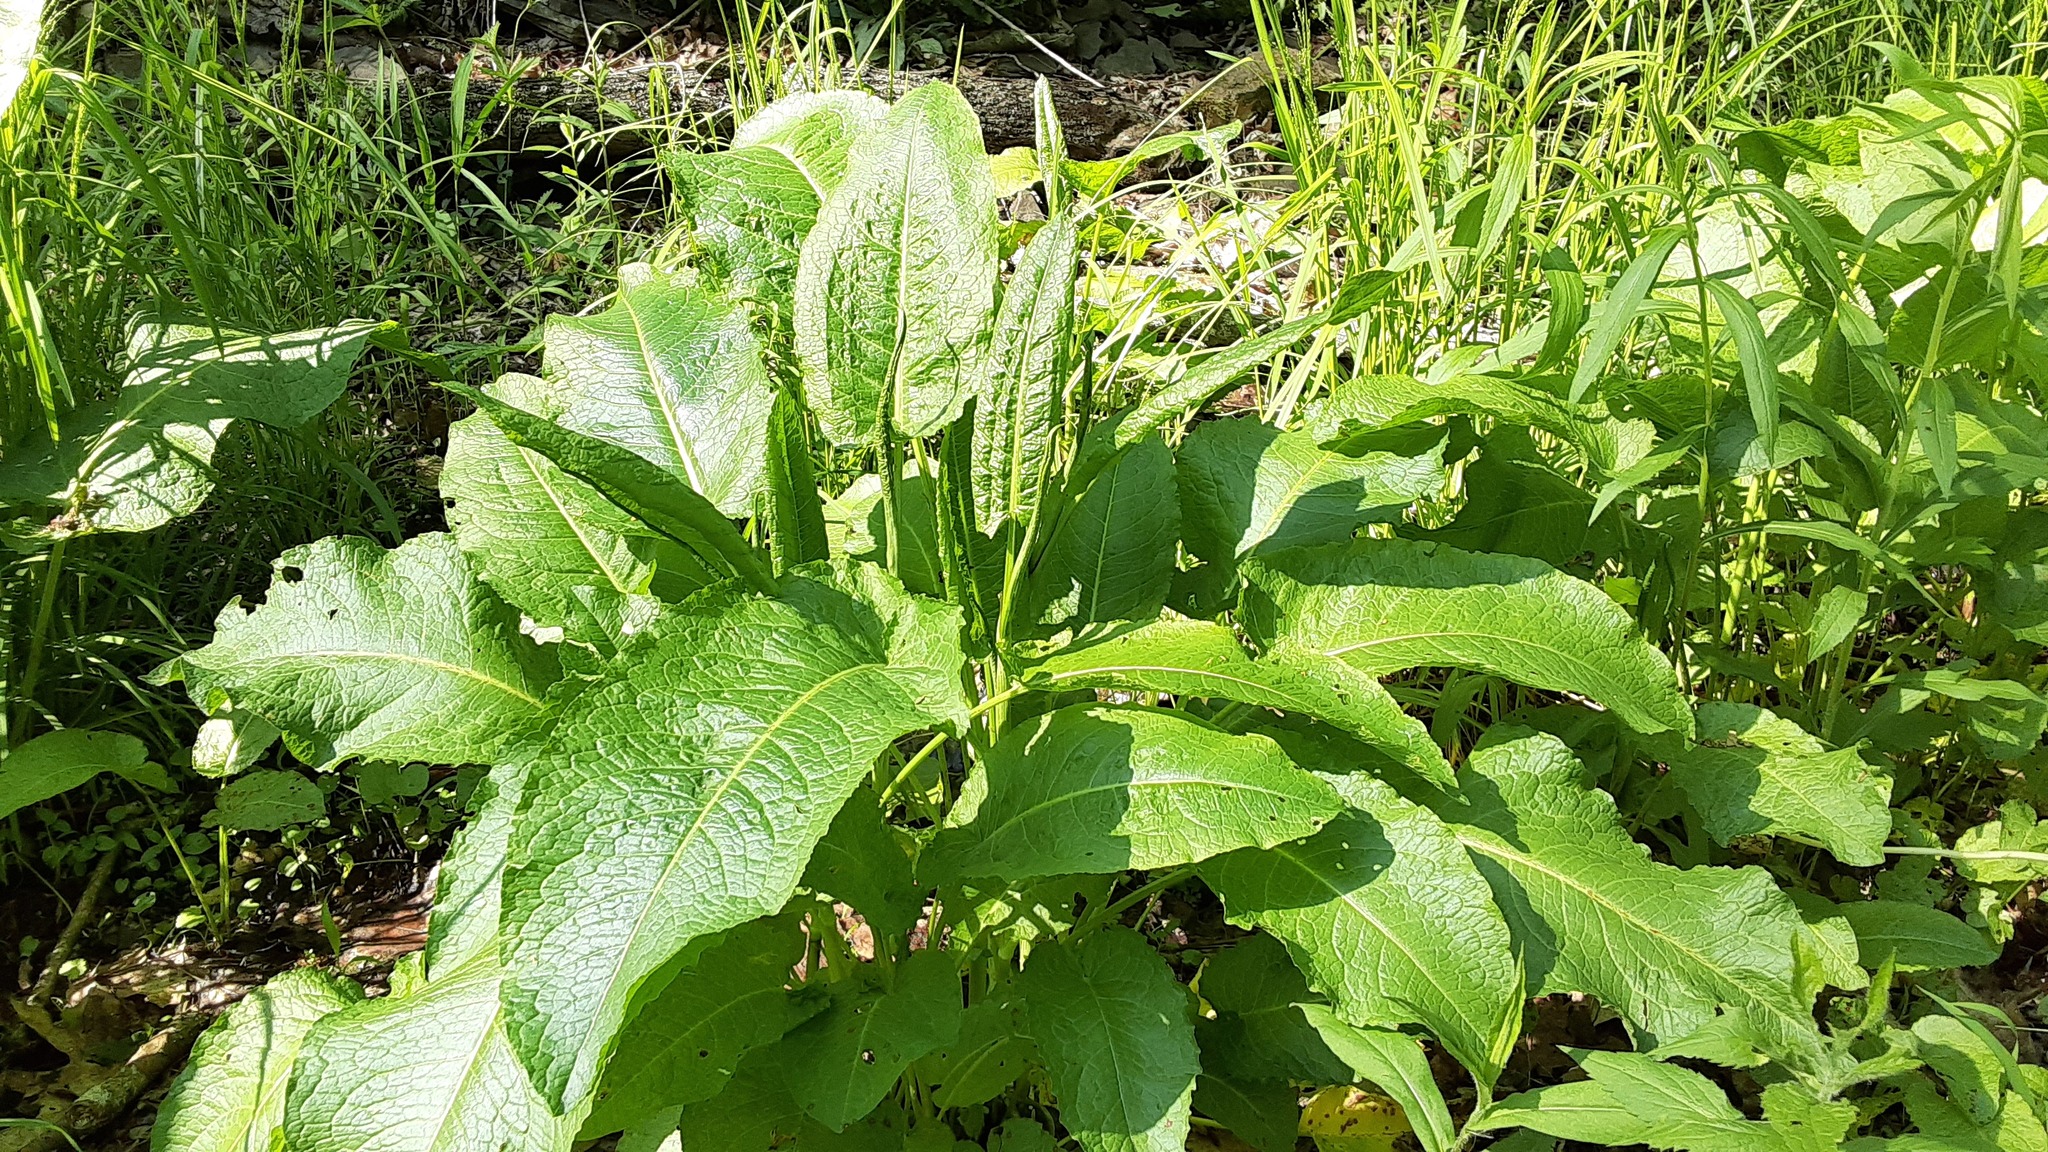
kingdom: Plantae
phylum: Tracheophyta
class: Magnoliopsida
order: Caryophyllales
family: Polygonaceae
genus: Rumex
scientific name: Rumex obtusifolius
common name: Bitter dock
